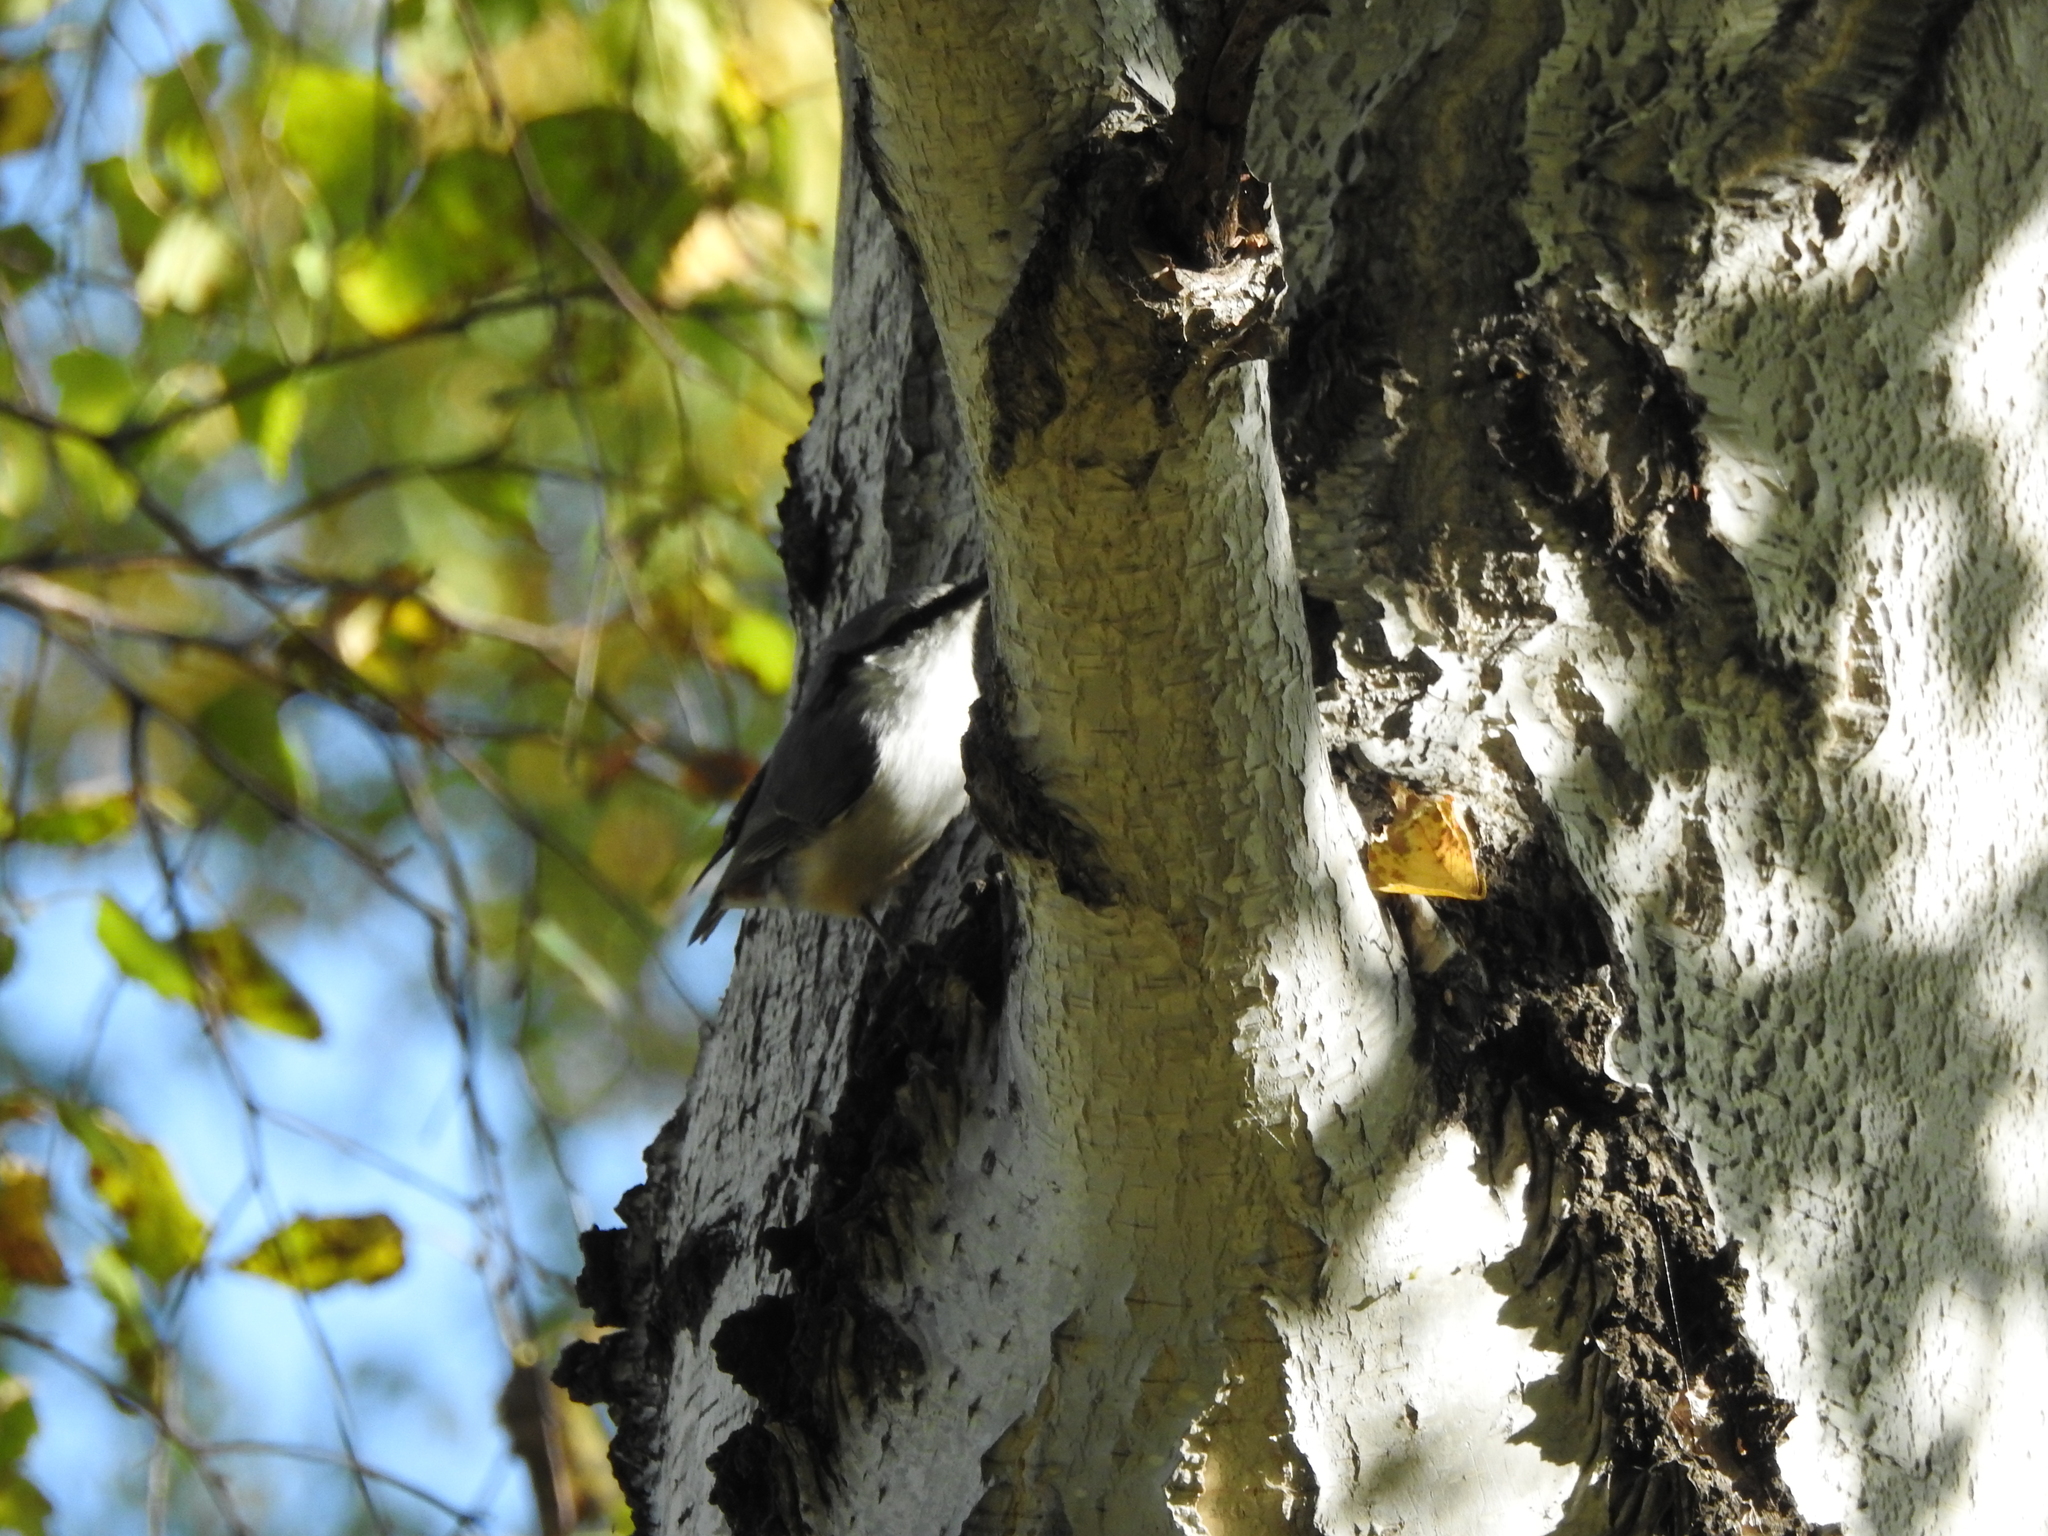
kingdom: Animalia
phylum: Chordata
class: Aves
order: Passeriformes
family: Sittidae
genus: Sitta
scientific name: Sitta europaea
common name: Eurasian nuthatch
